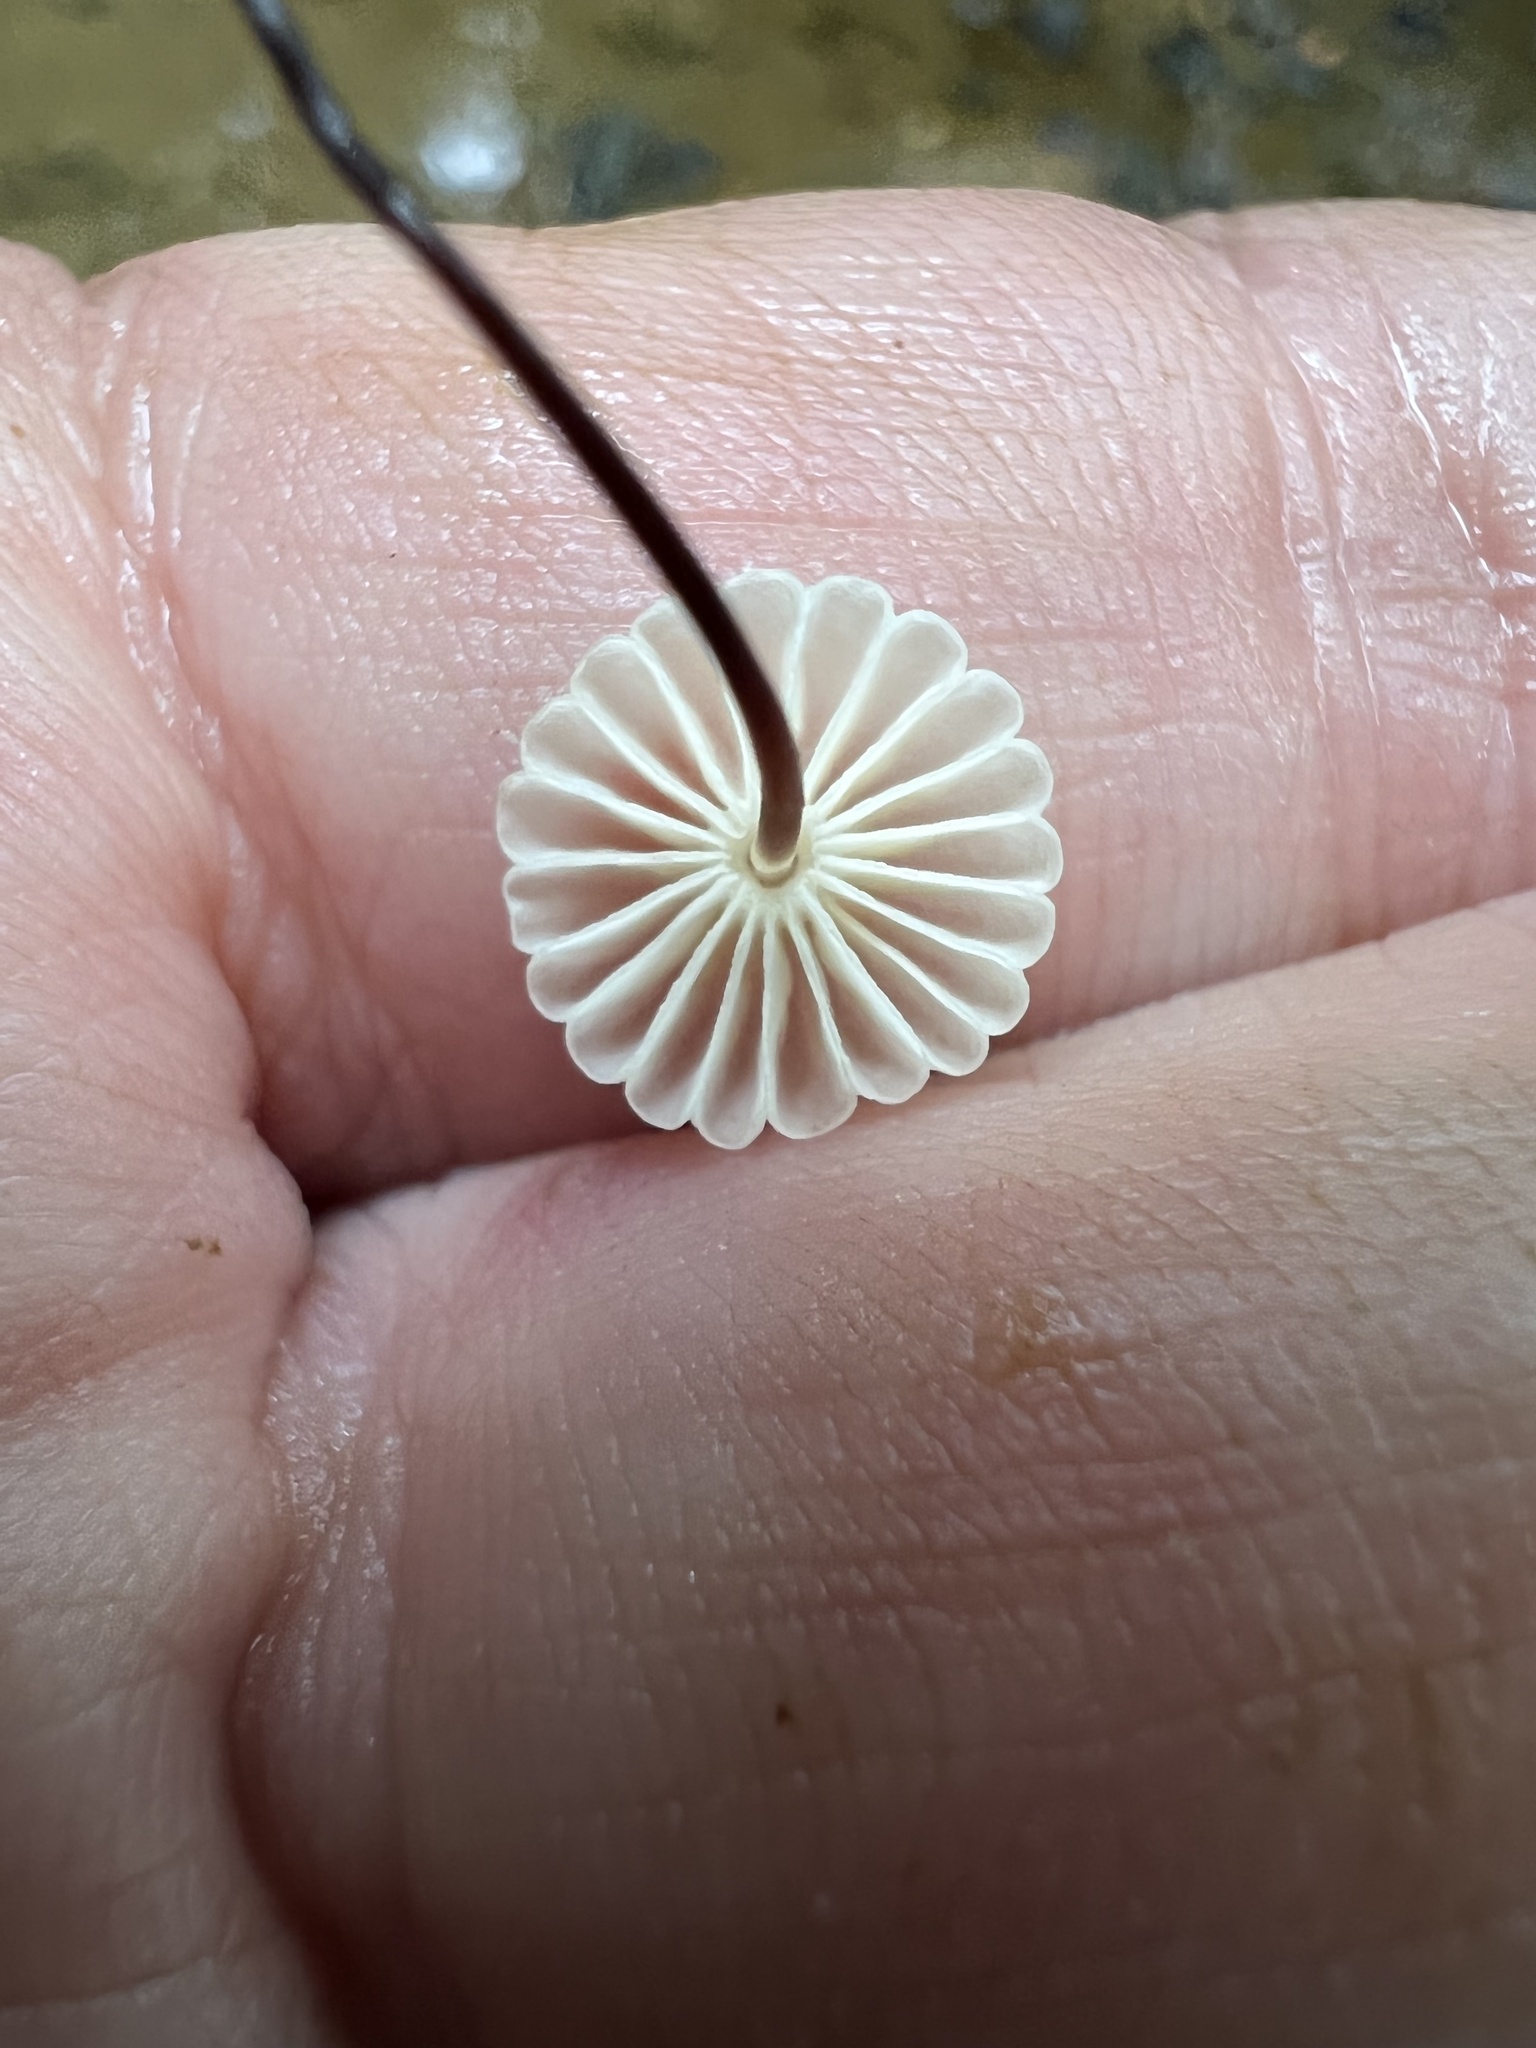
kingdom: Fungi
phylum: Basidiomycota
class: Agaricomycetes
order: Agaricales
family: Marasmiaceae
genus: Marasmius
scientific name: Marasmius rotula
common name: Collared parachute
